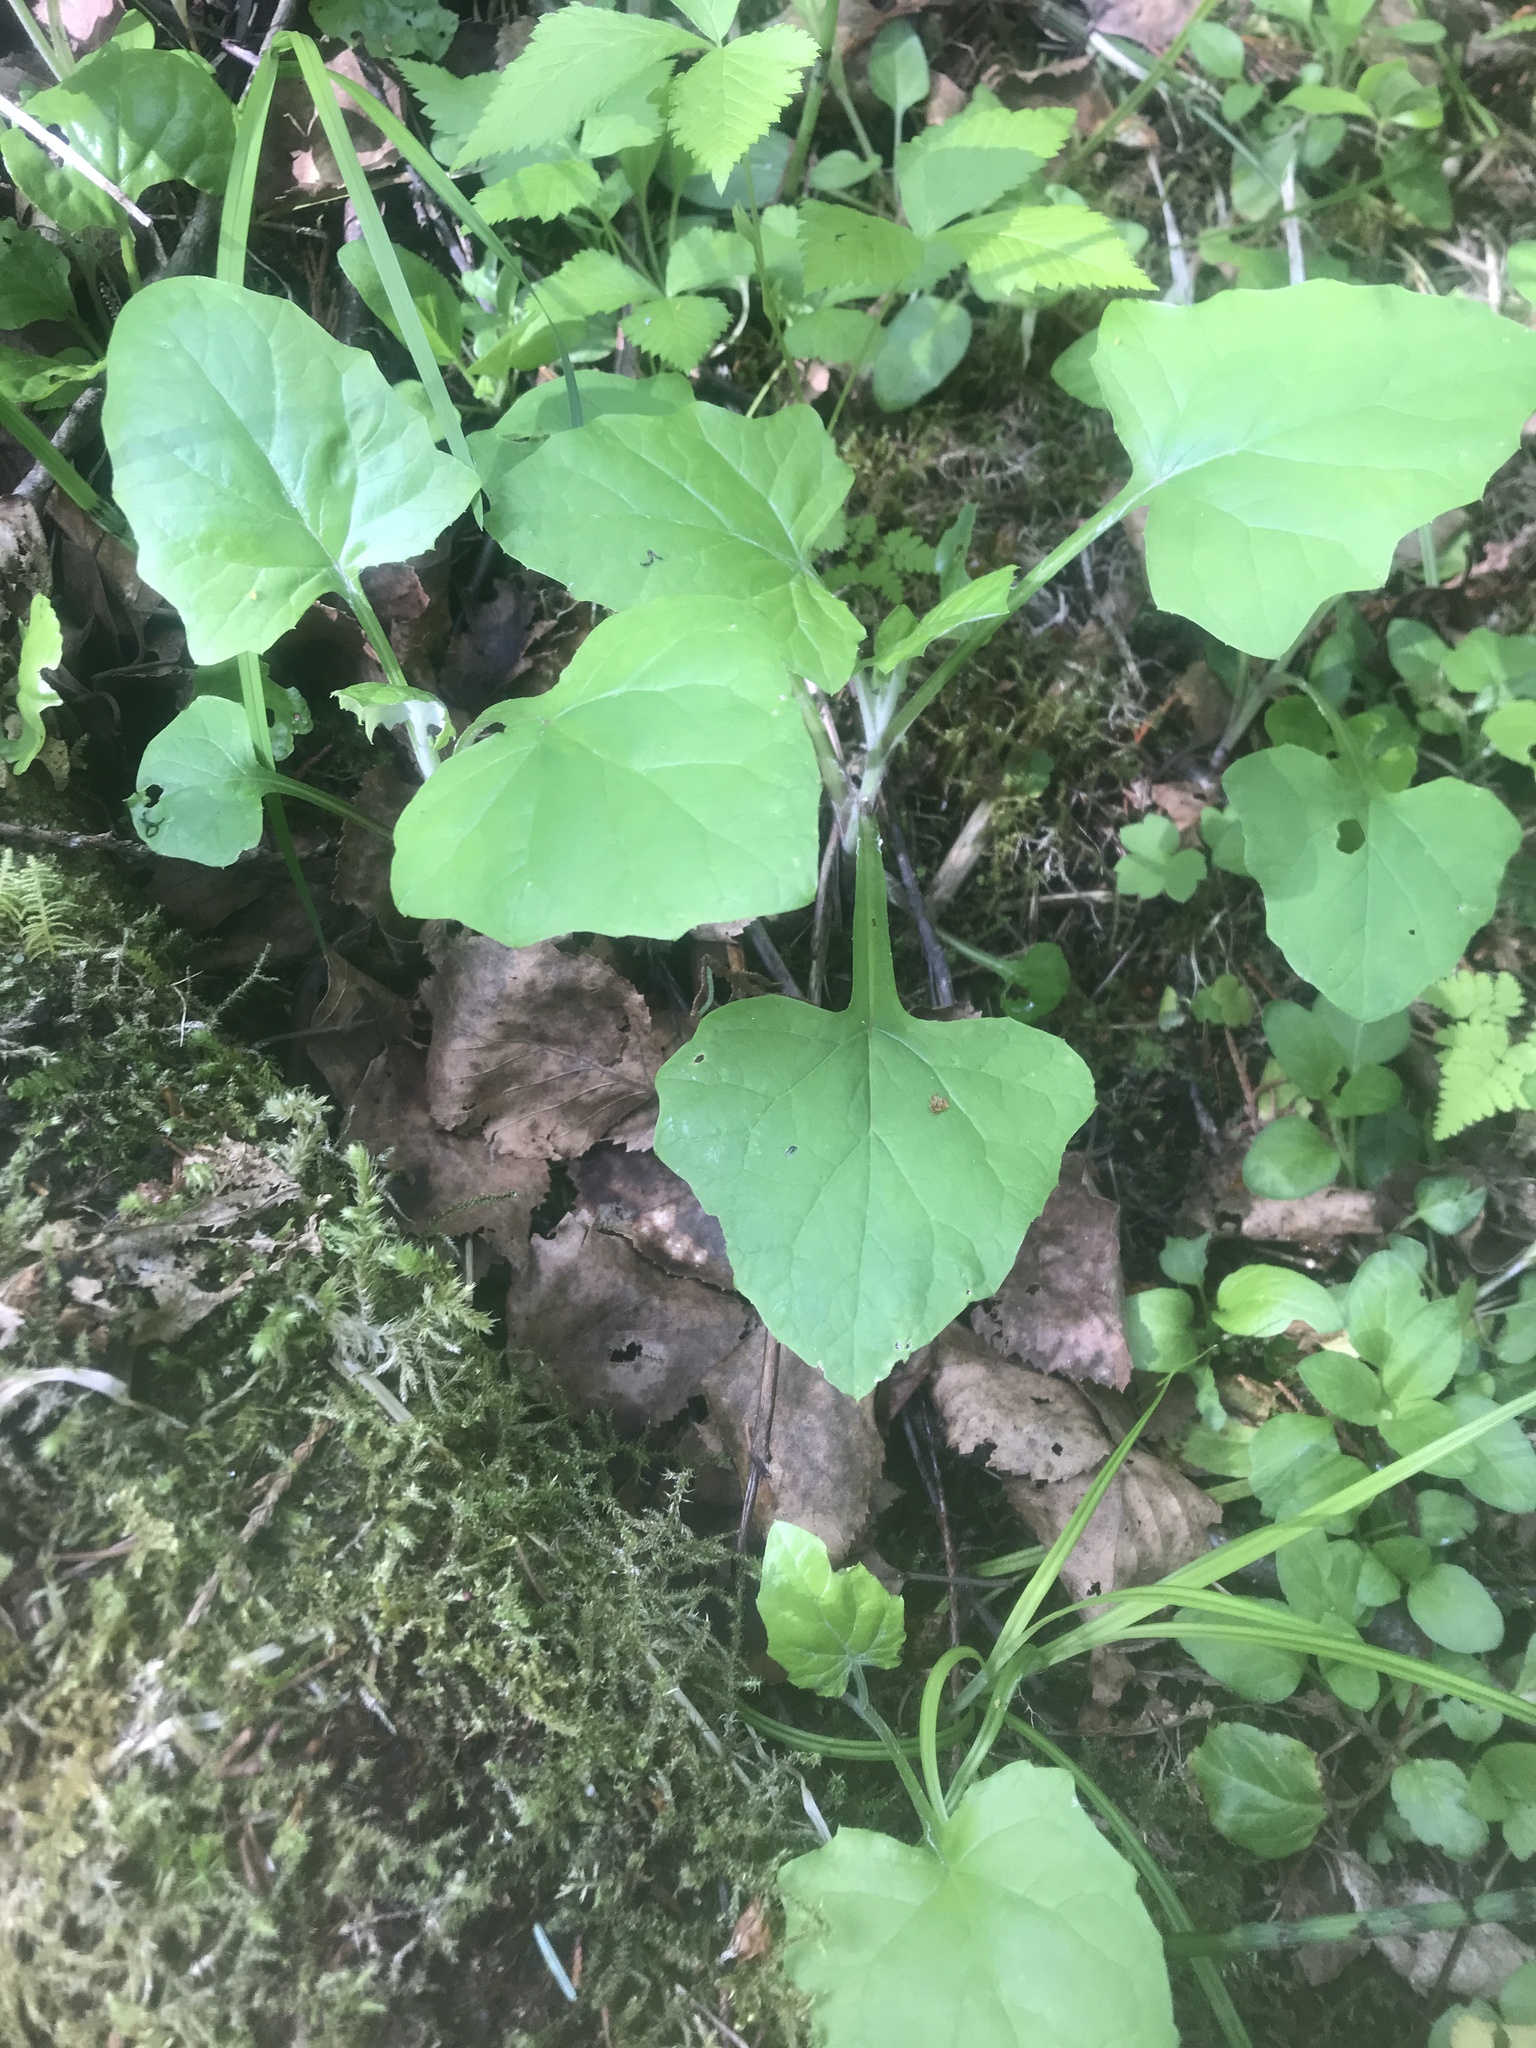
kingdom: Plantae
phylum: Tracheophyta
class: Magnoliopsida
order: Asterales
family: Asteraceae
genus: Adenocaulon
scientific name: Adenocaulon bicolor
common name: Trailplant
